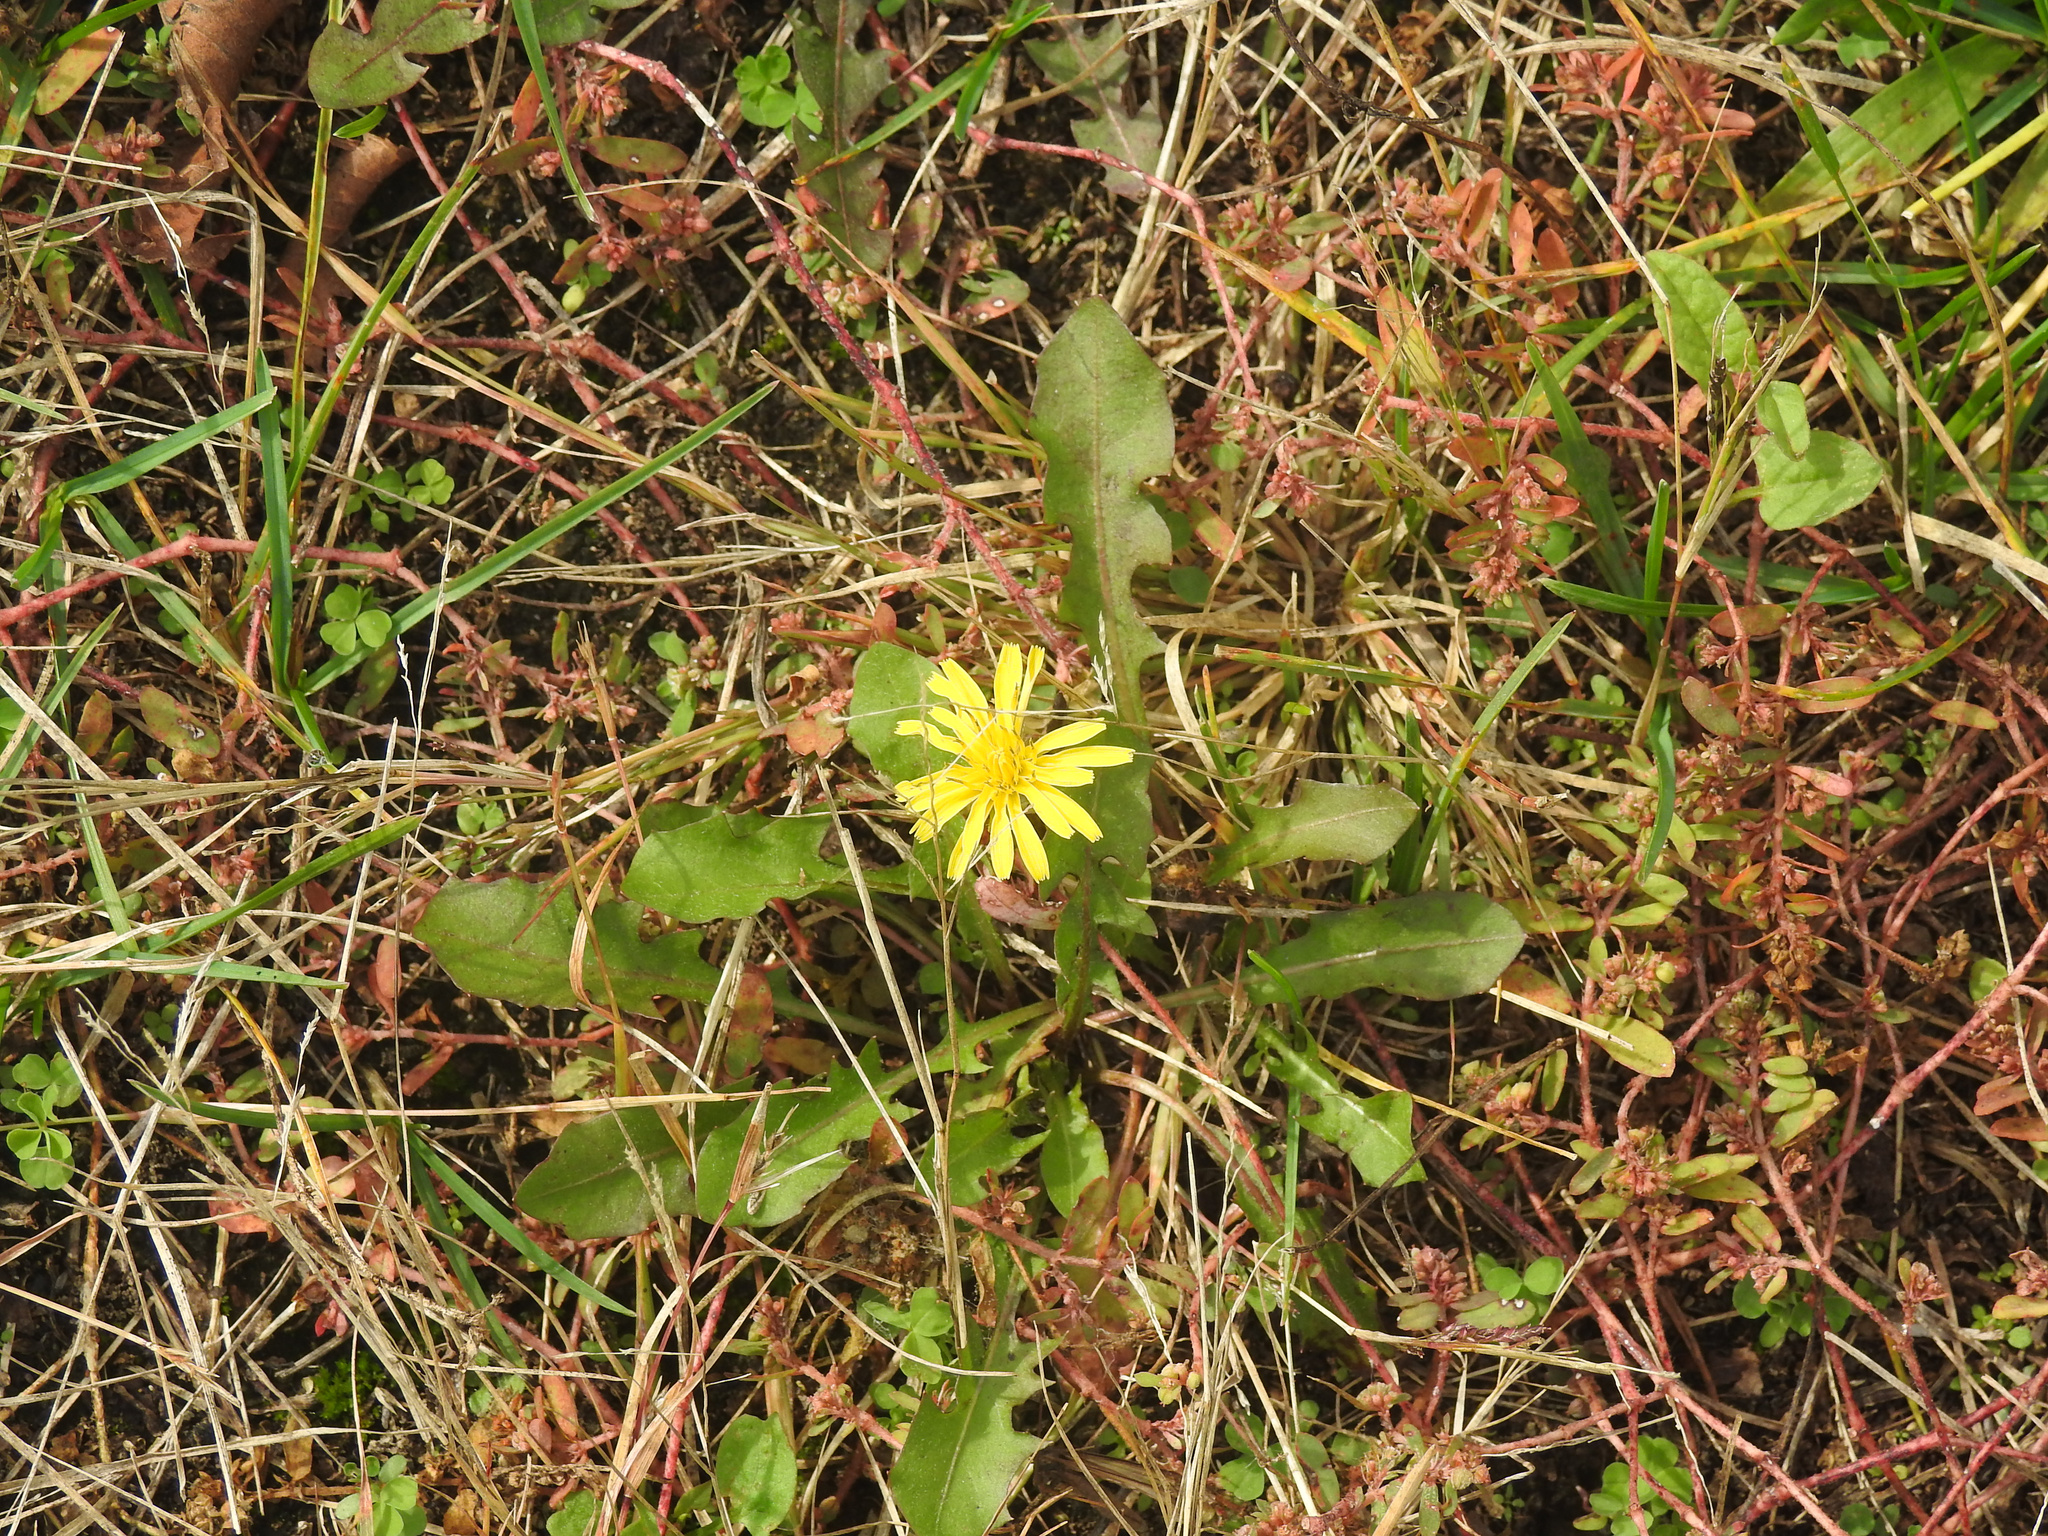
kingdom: Plantae
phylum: Tracheophyta
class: Magnoliopsida
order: Asterales
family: Asteraceae
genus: Taraxacum
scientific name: Taraxacum officinale
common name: Common dandelion
